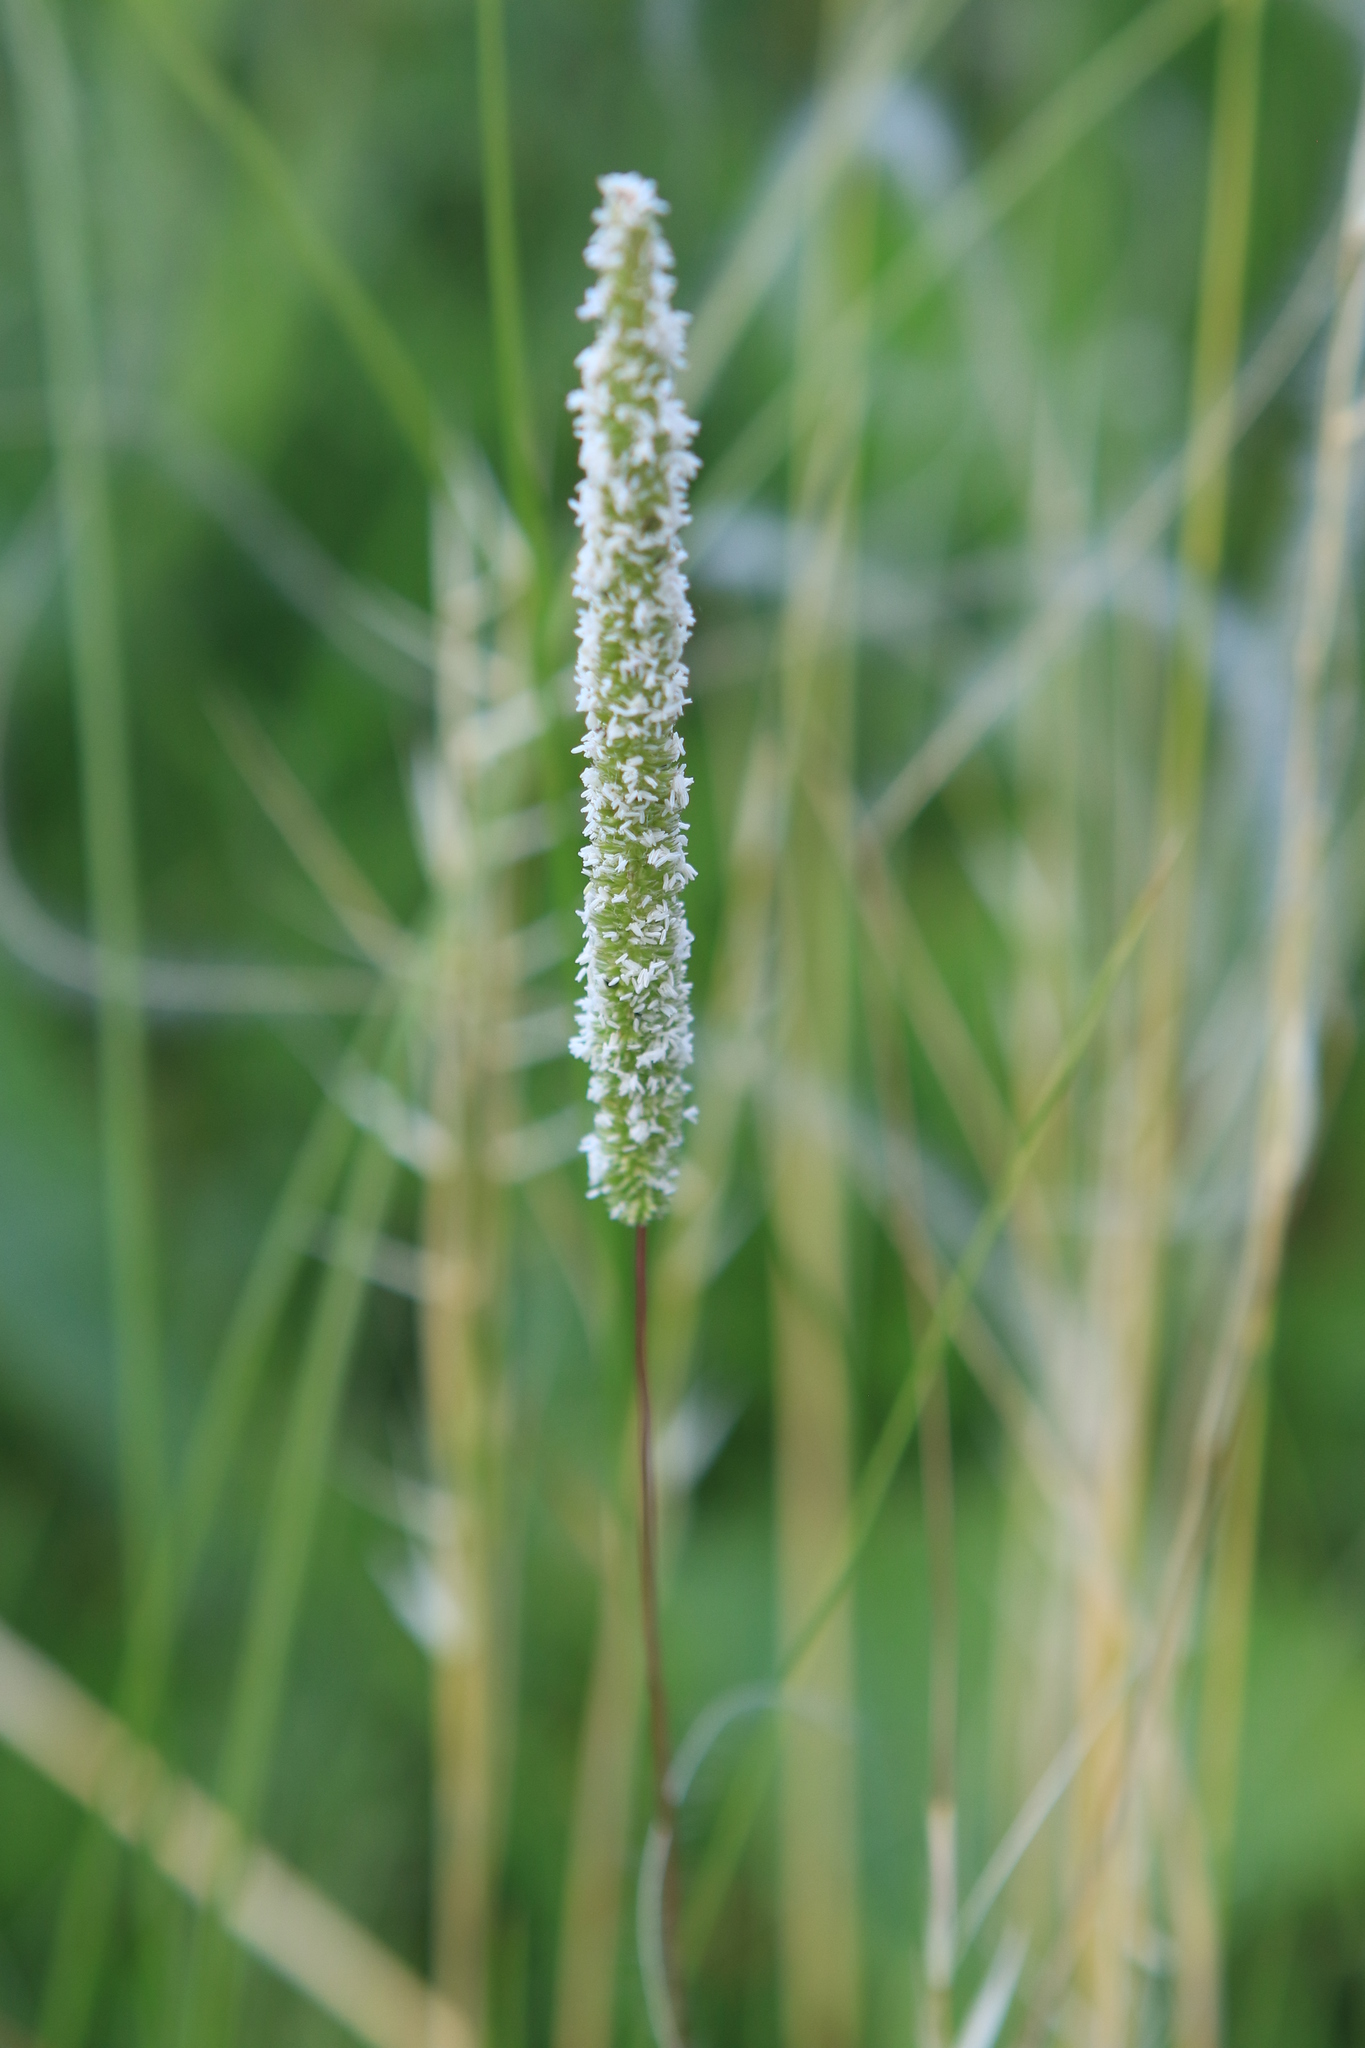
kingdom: Plantae
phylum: Tracheophyta
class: Liliopsida
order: Poales
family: Poaceae
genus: Phleum
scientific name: Phleum pratense
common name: Timothy grass
